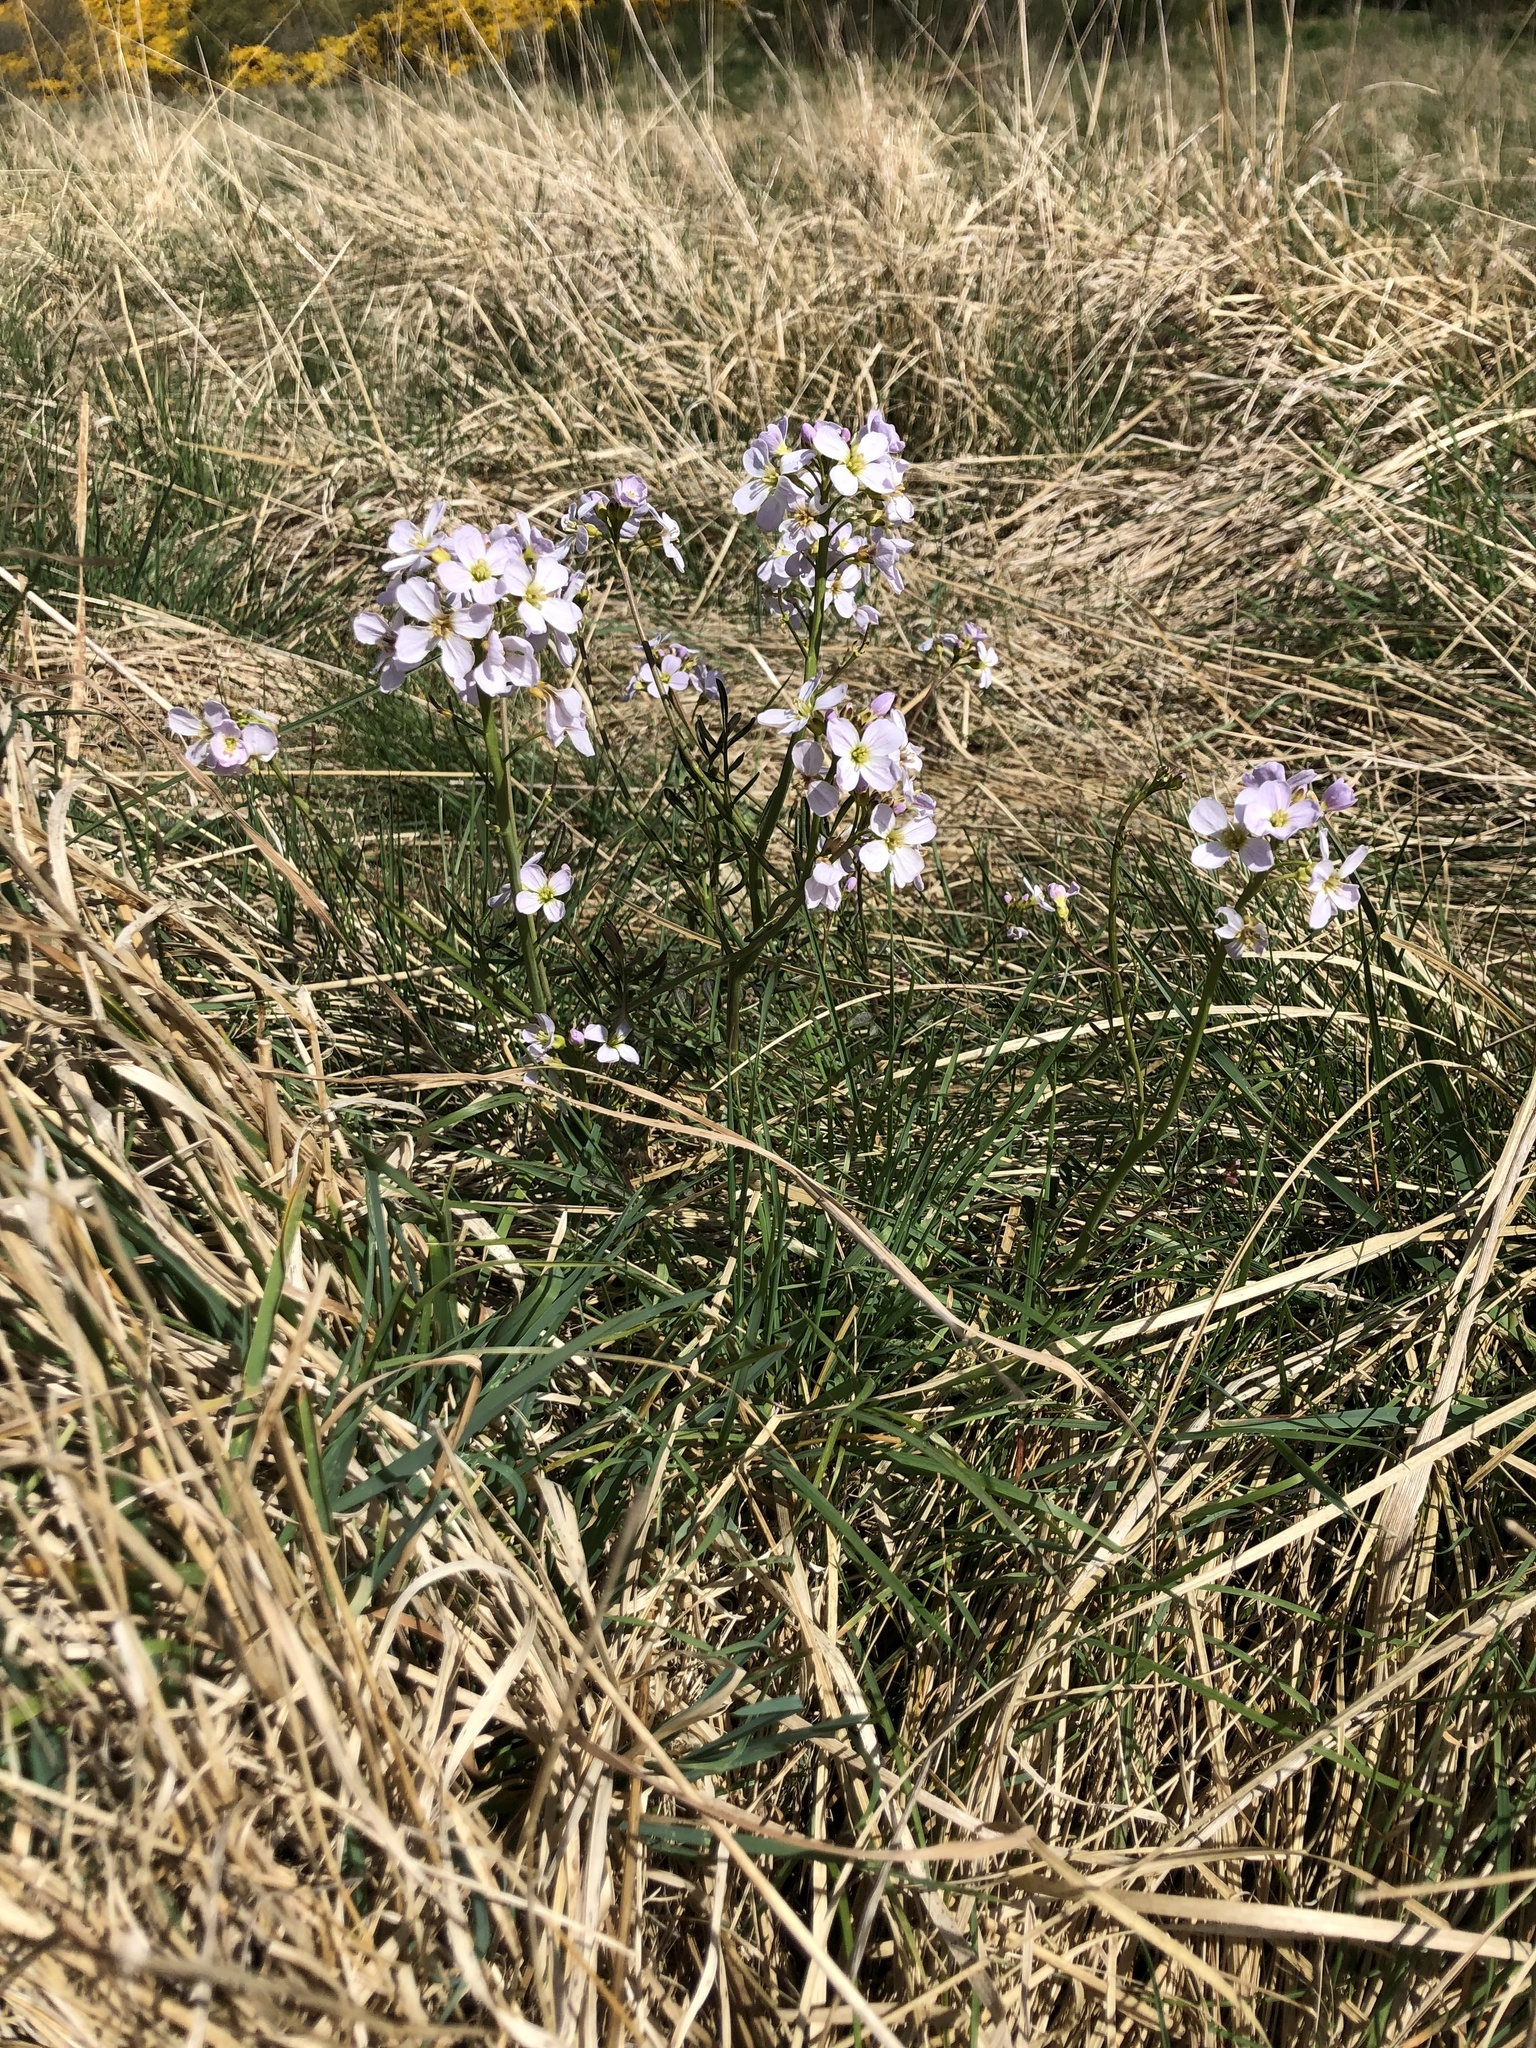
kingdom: Plantae
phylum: Tracheophyta
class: Magnoliopsida
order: Brassicales
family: Brassicaceae
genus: Cardamine
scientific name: Cardamine pratensis
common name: Cuckoo flower
